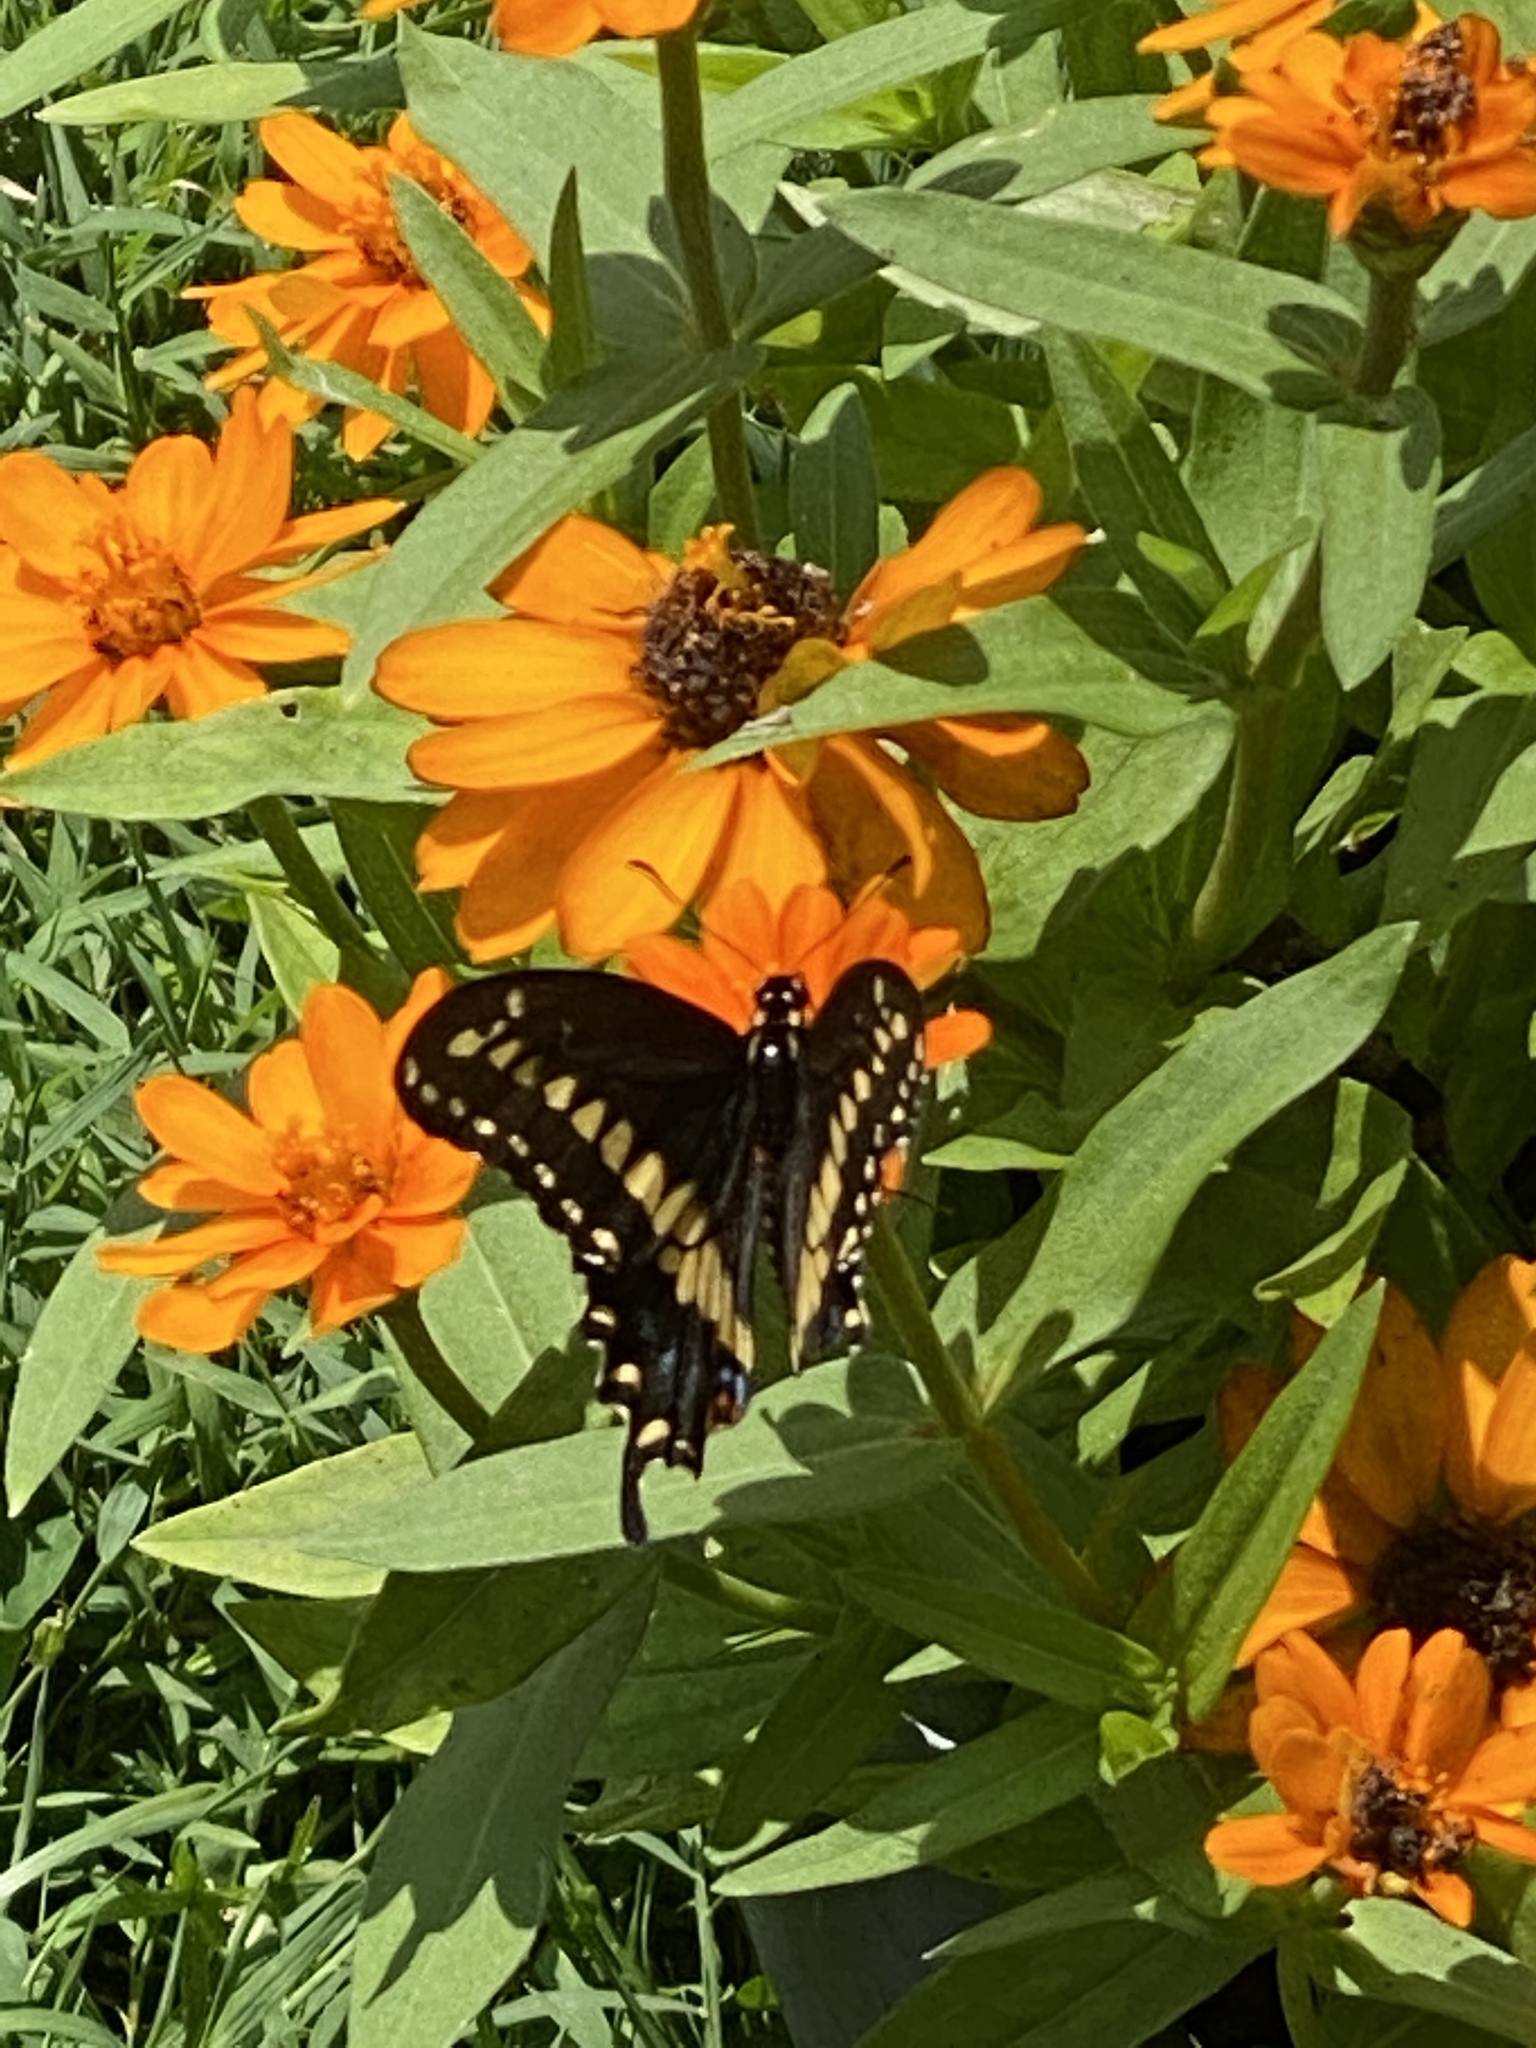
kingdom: Animalia
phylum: Arthropoda
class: Insecta
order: Lepidoptera
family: Papilionidae
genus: Papilio
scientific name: Papilio polyxenes
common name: Black swallowtail
